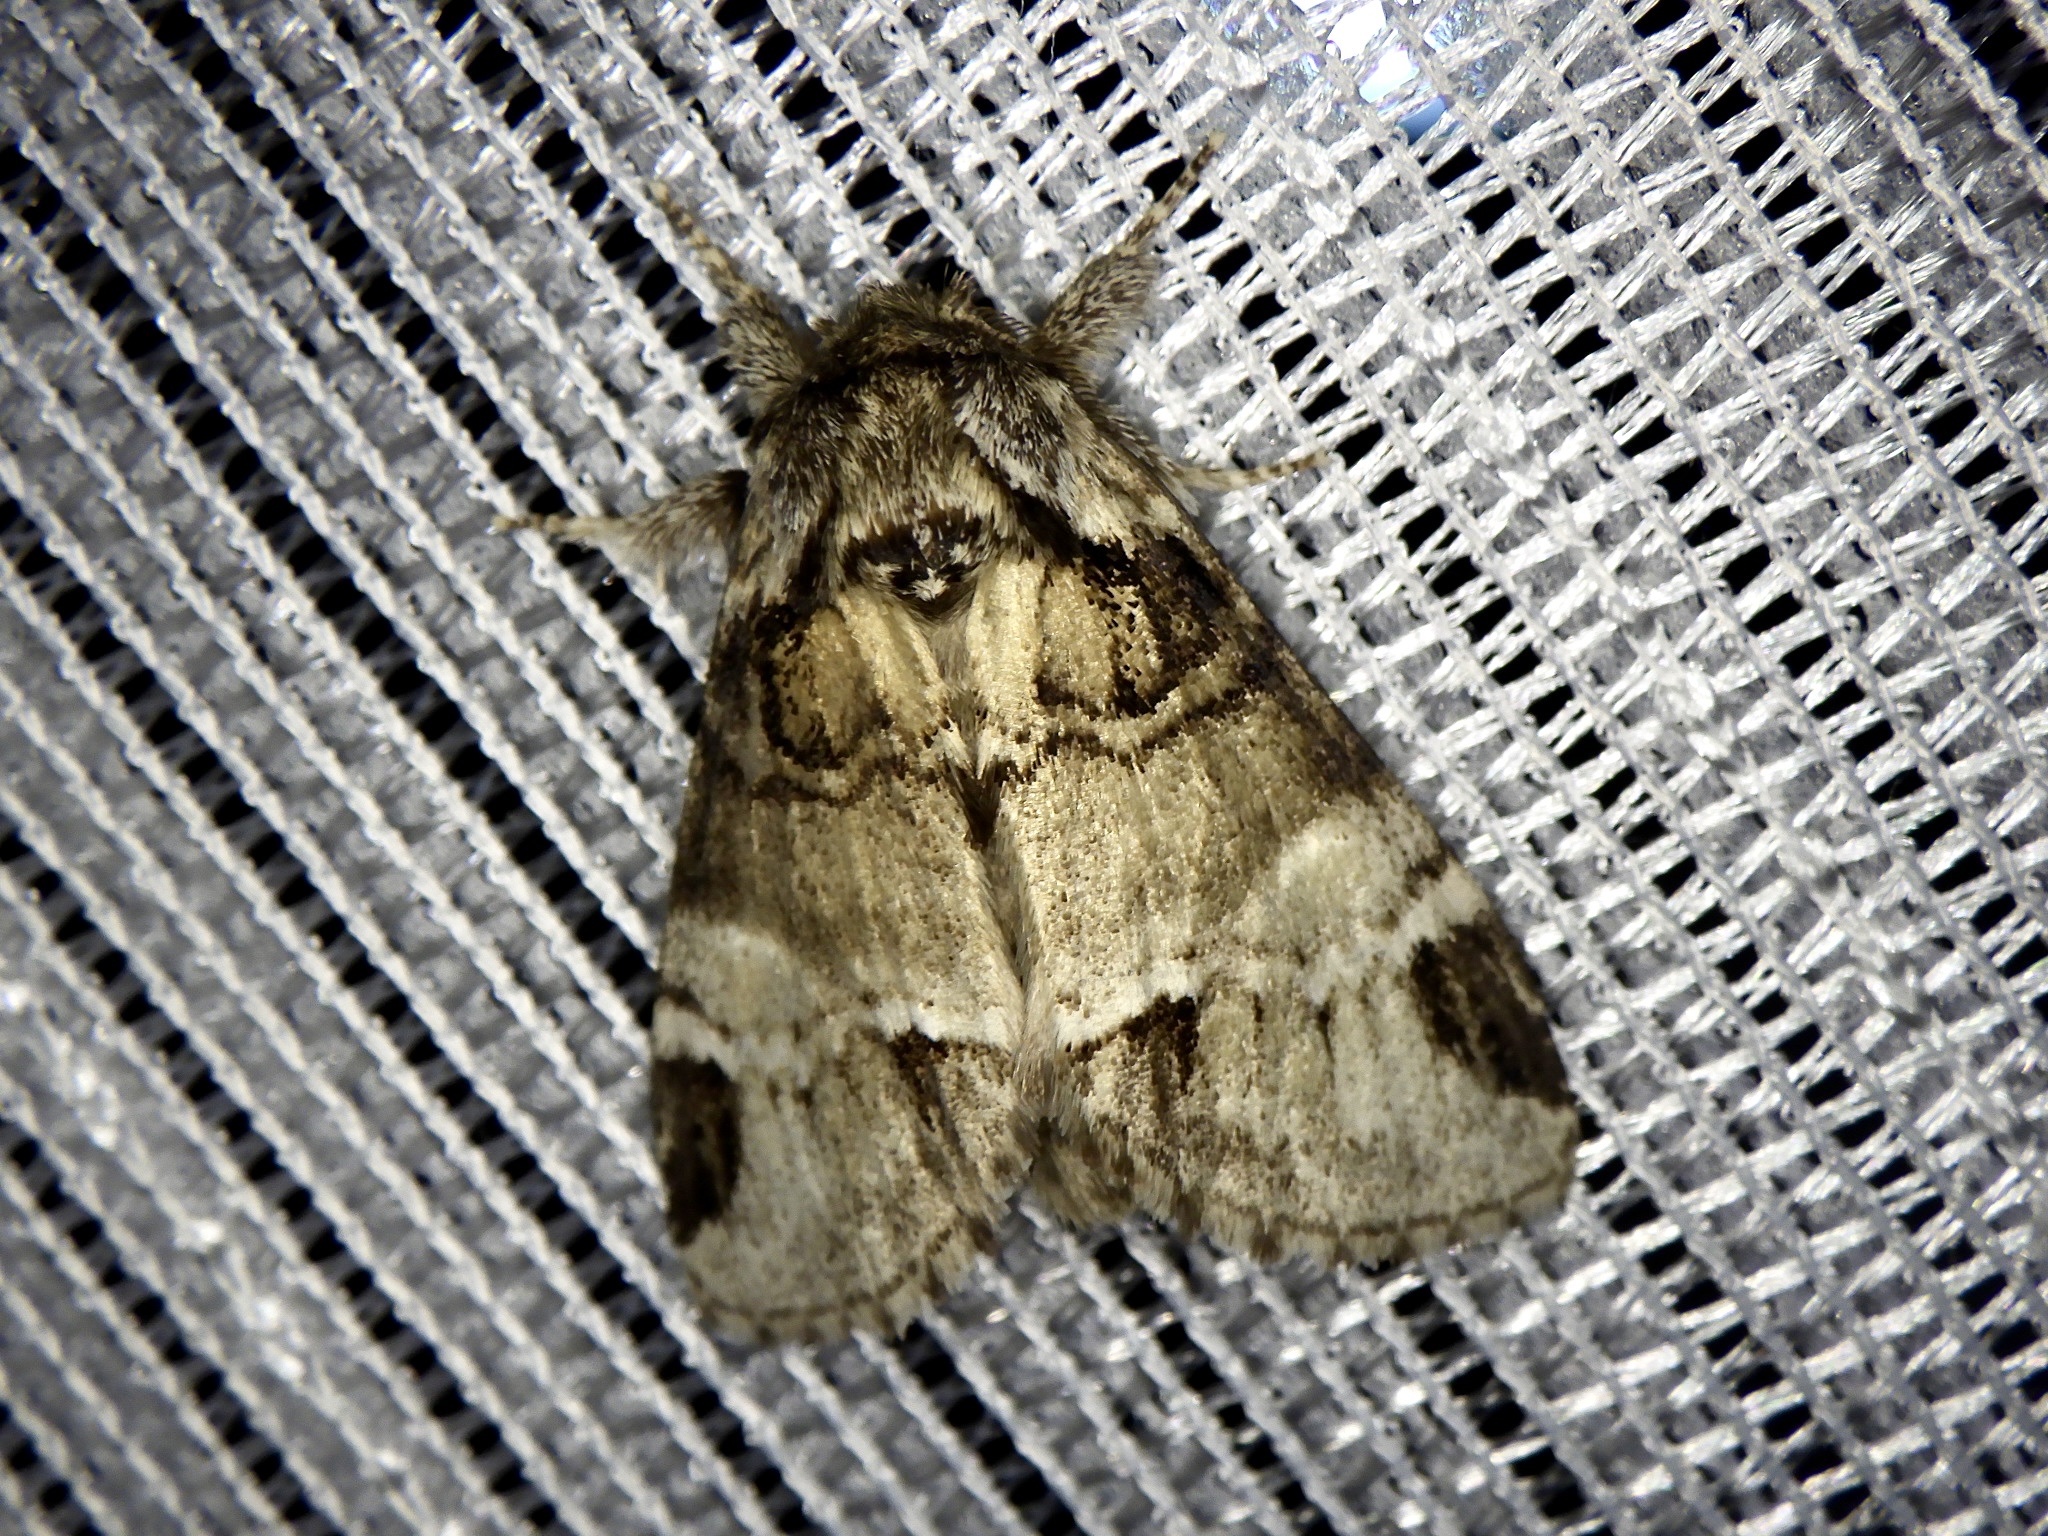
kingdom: Animalia
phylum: Arthropoda
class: Insecta
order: Lepidoptera
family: Notodontidae
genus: Drymonia
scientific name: Drymonia japonica
